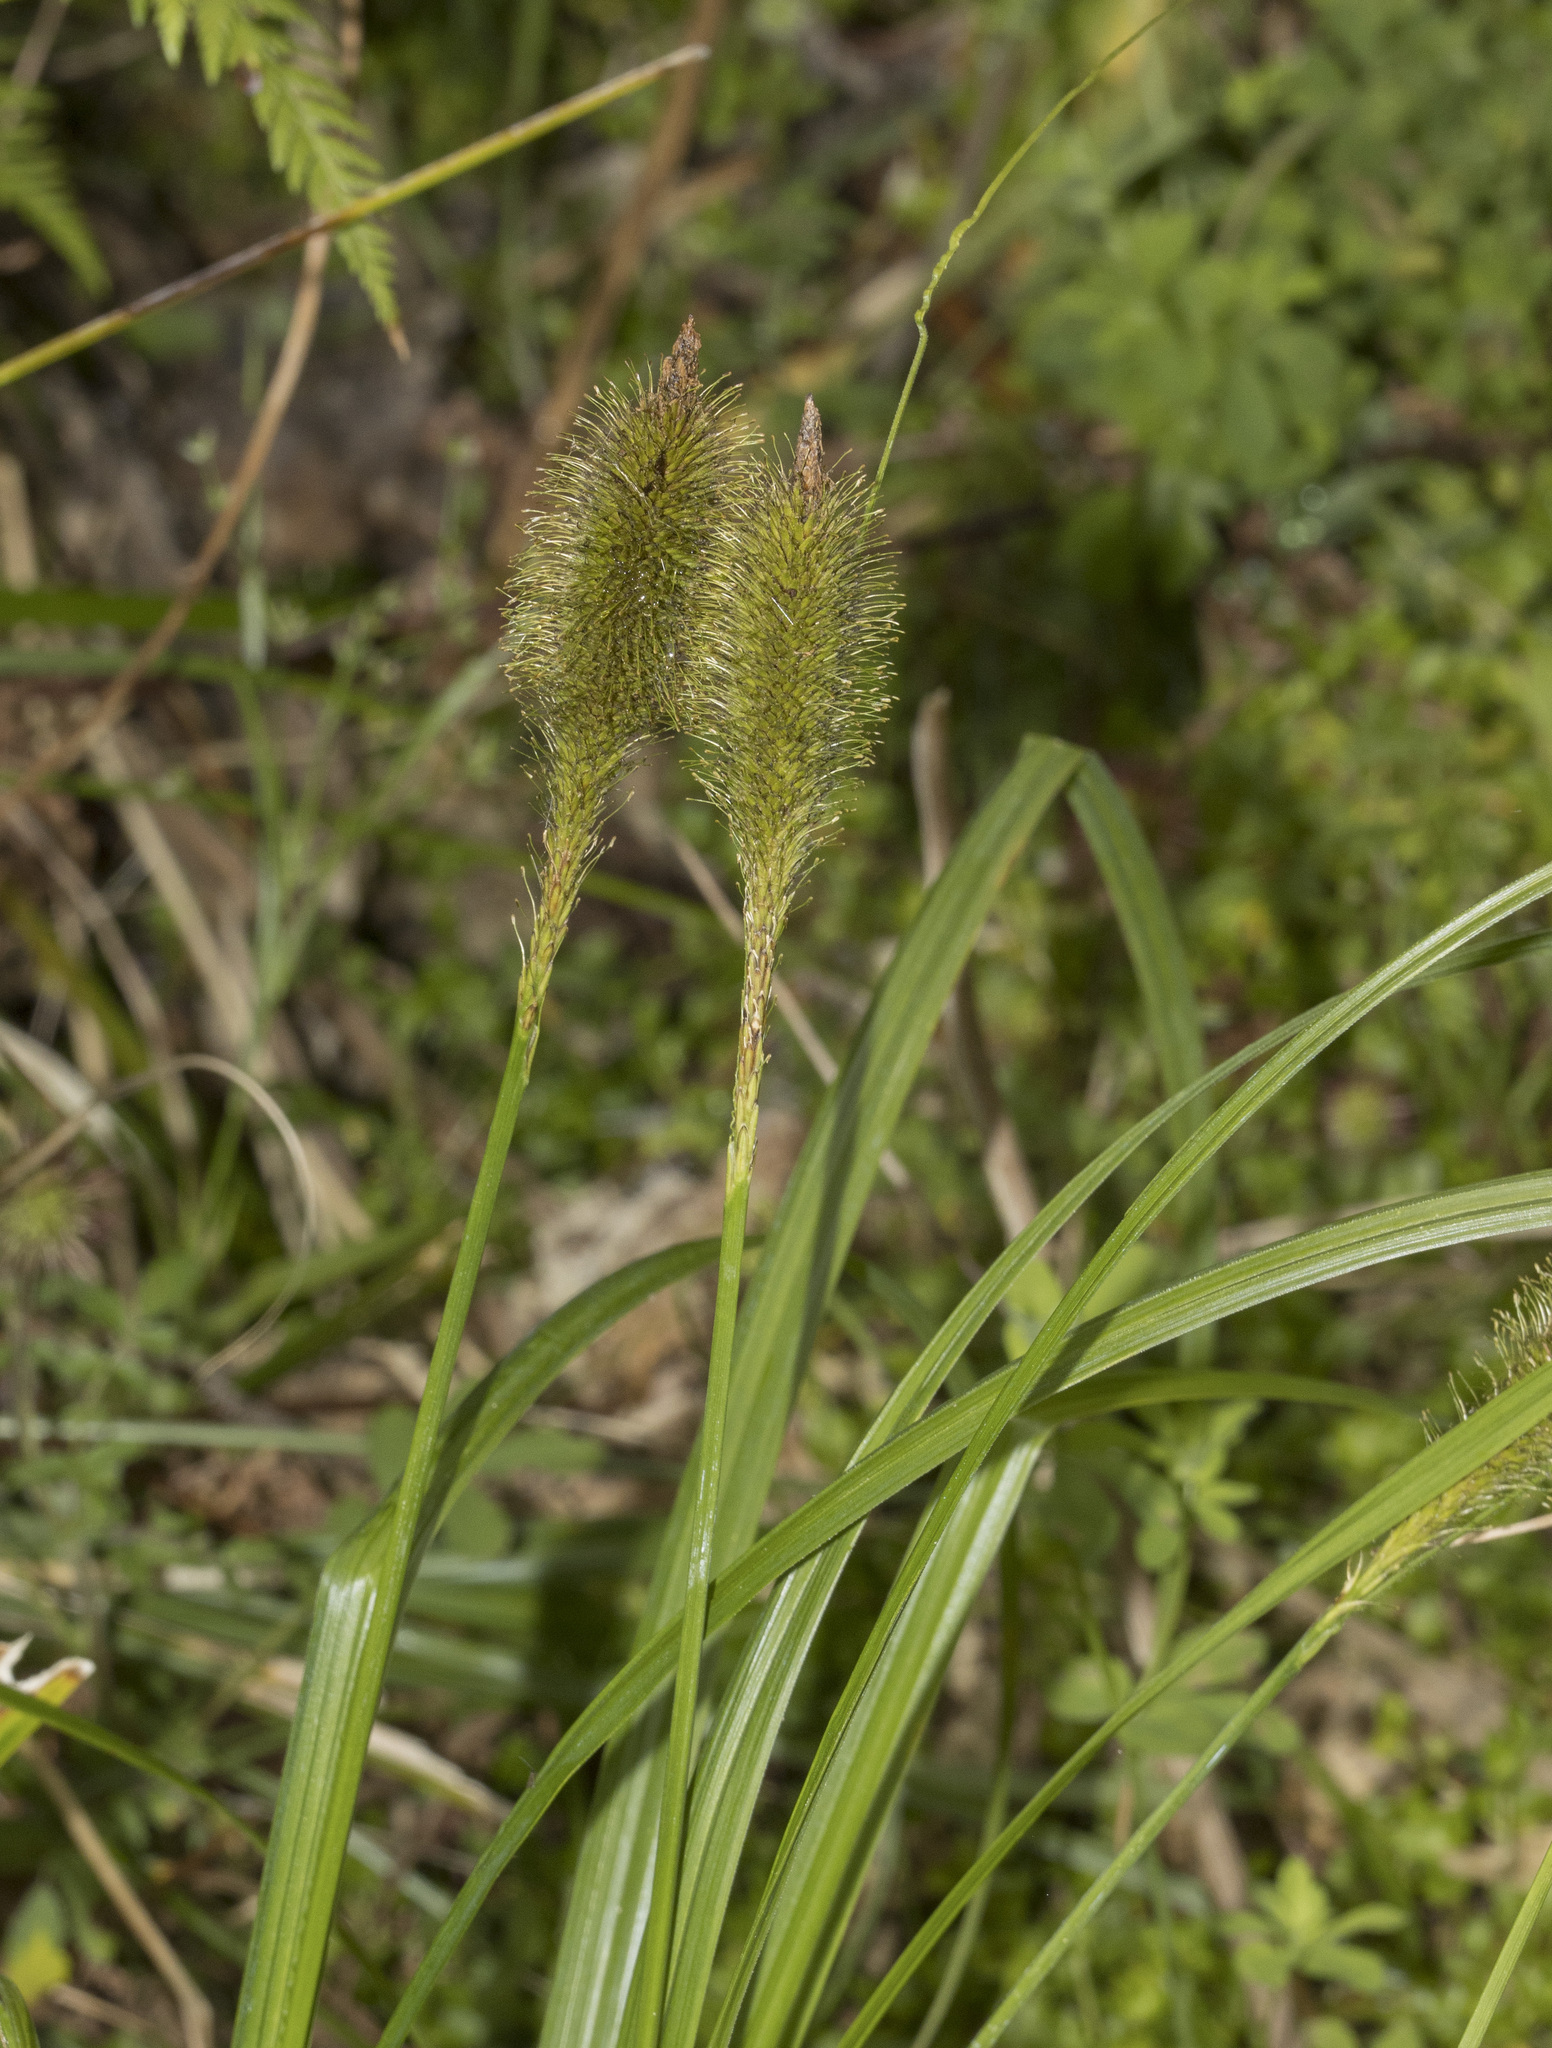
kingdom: Plantae
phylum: Tracheophyta
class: Liliopsida
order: Poales
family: Cyperaceae
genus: Carex
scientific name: Carex multifaria
